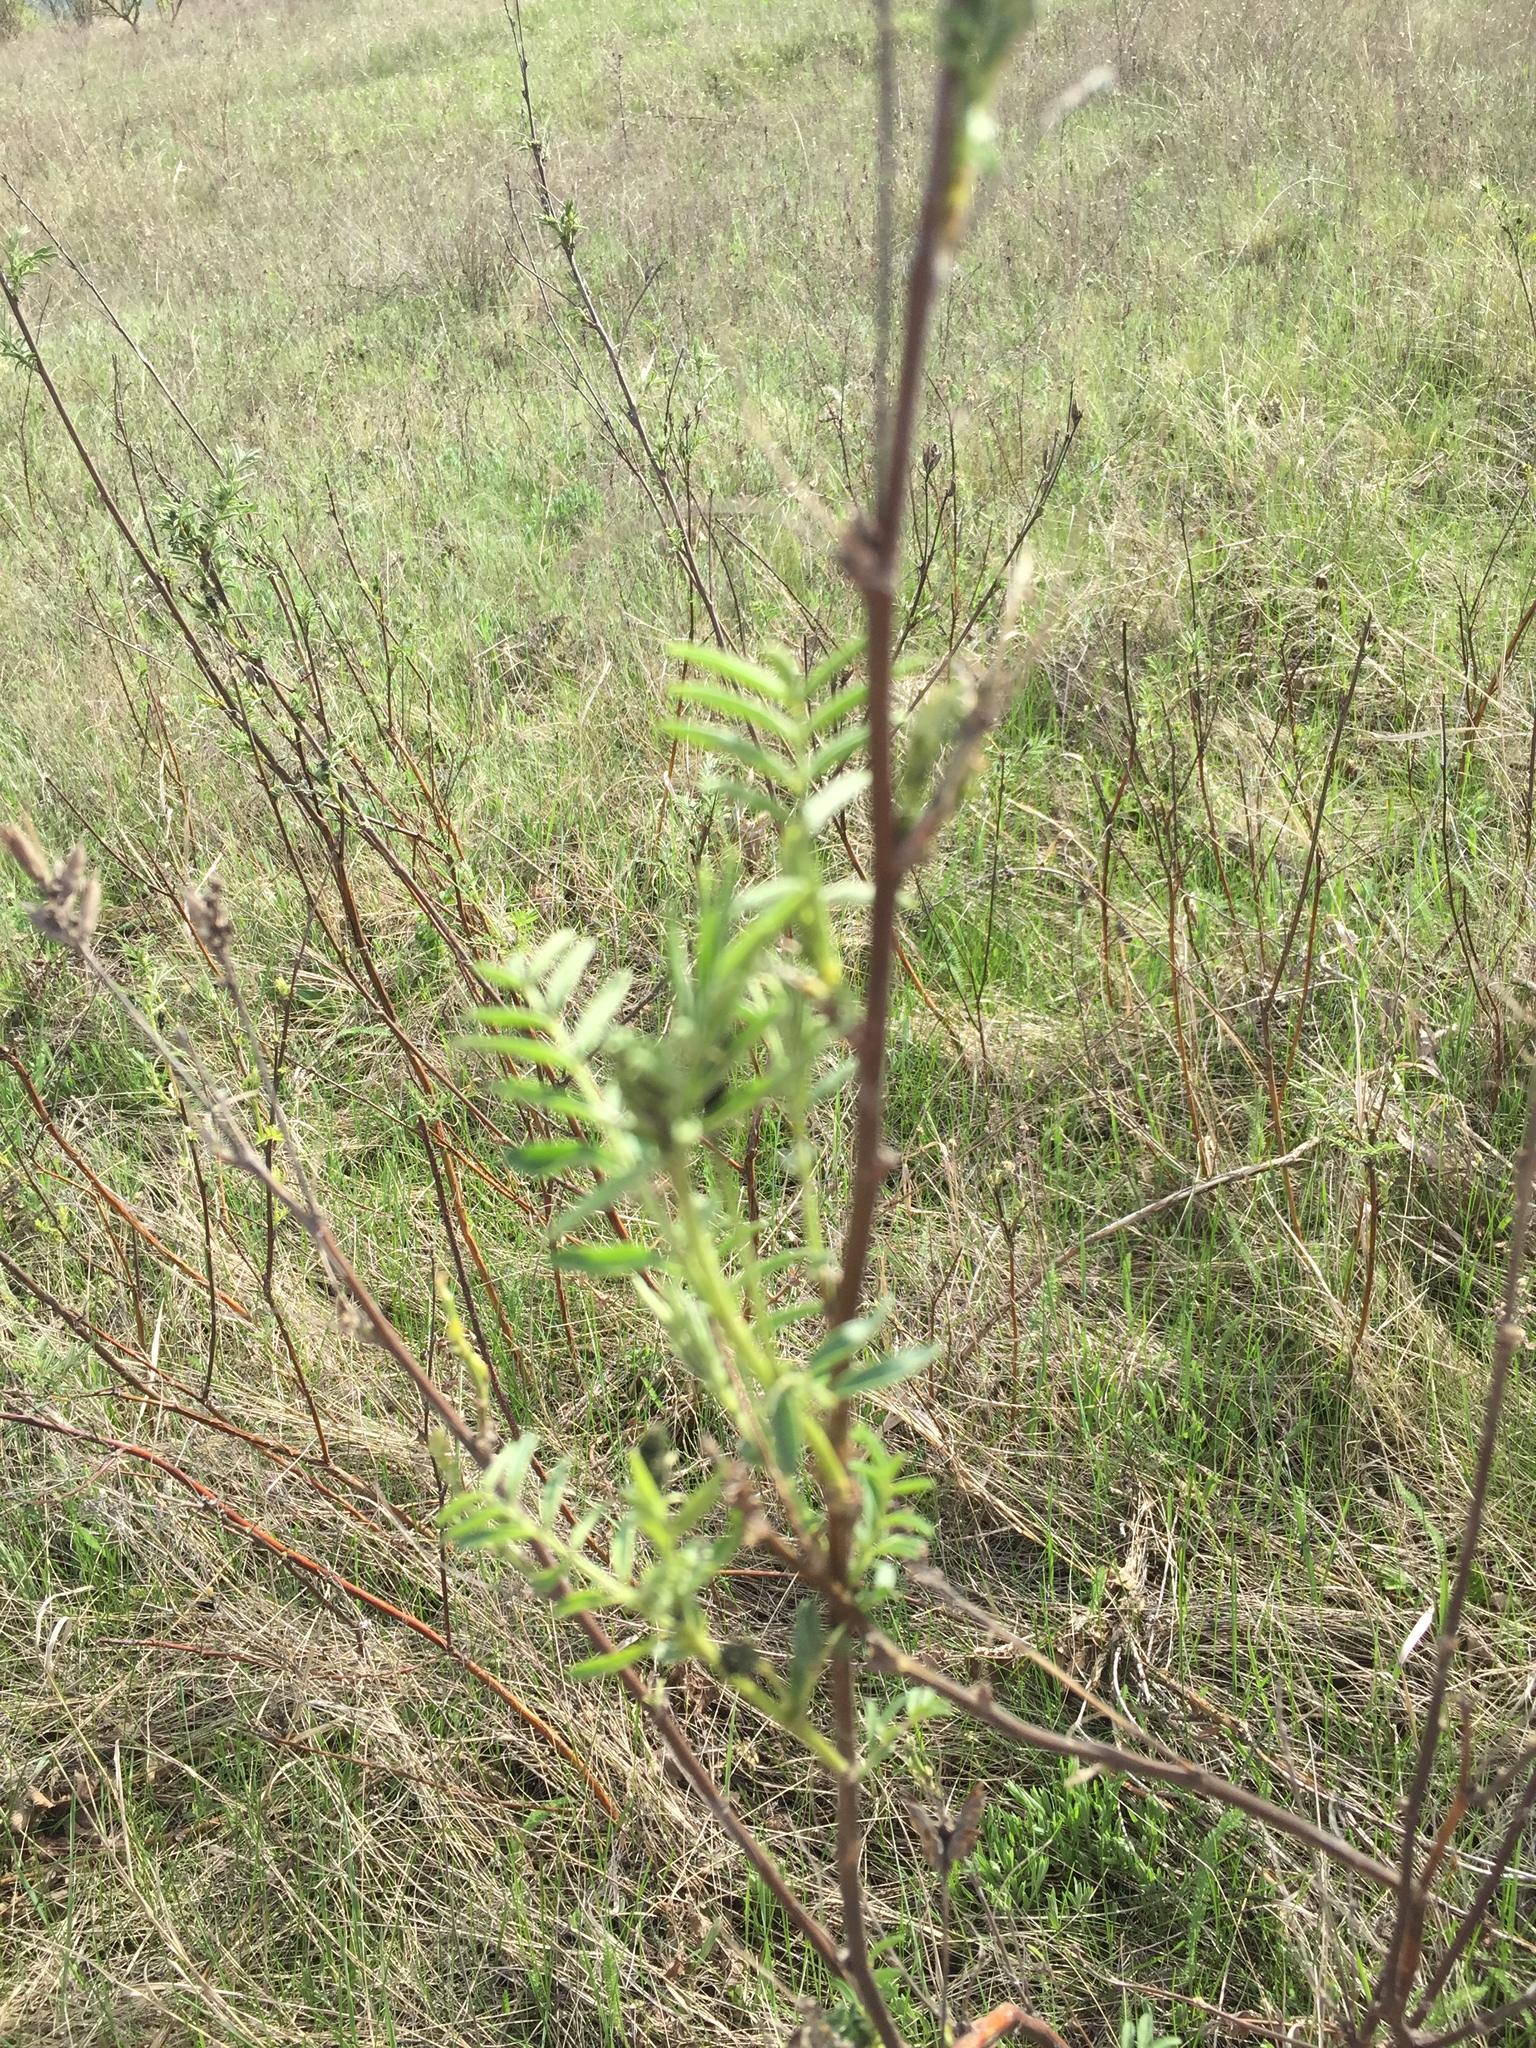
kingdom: Plantae
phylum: Tracheophyta
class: Magnoliopsida
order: Fabales
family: Fabaceae
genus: Astragalus
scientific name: Astragalus cornutus
